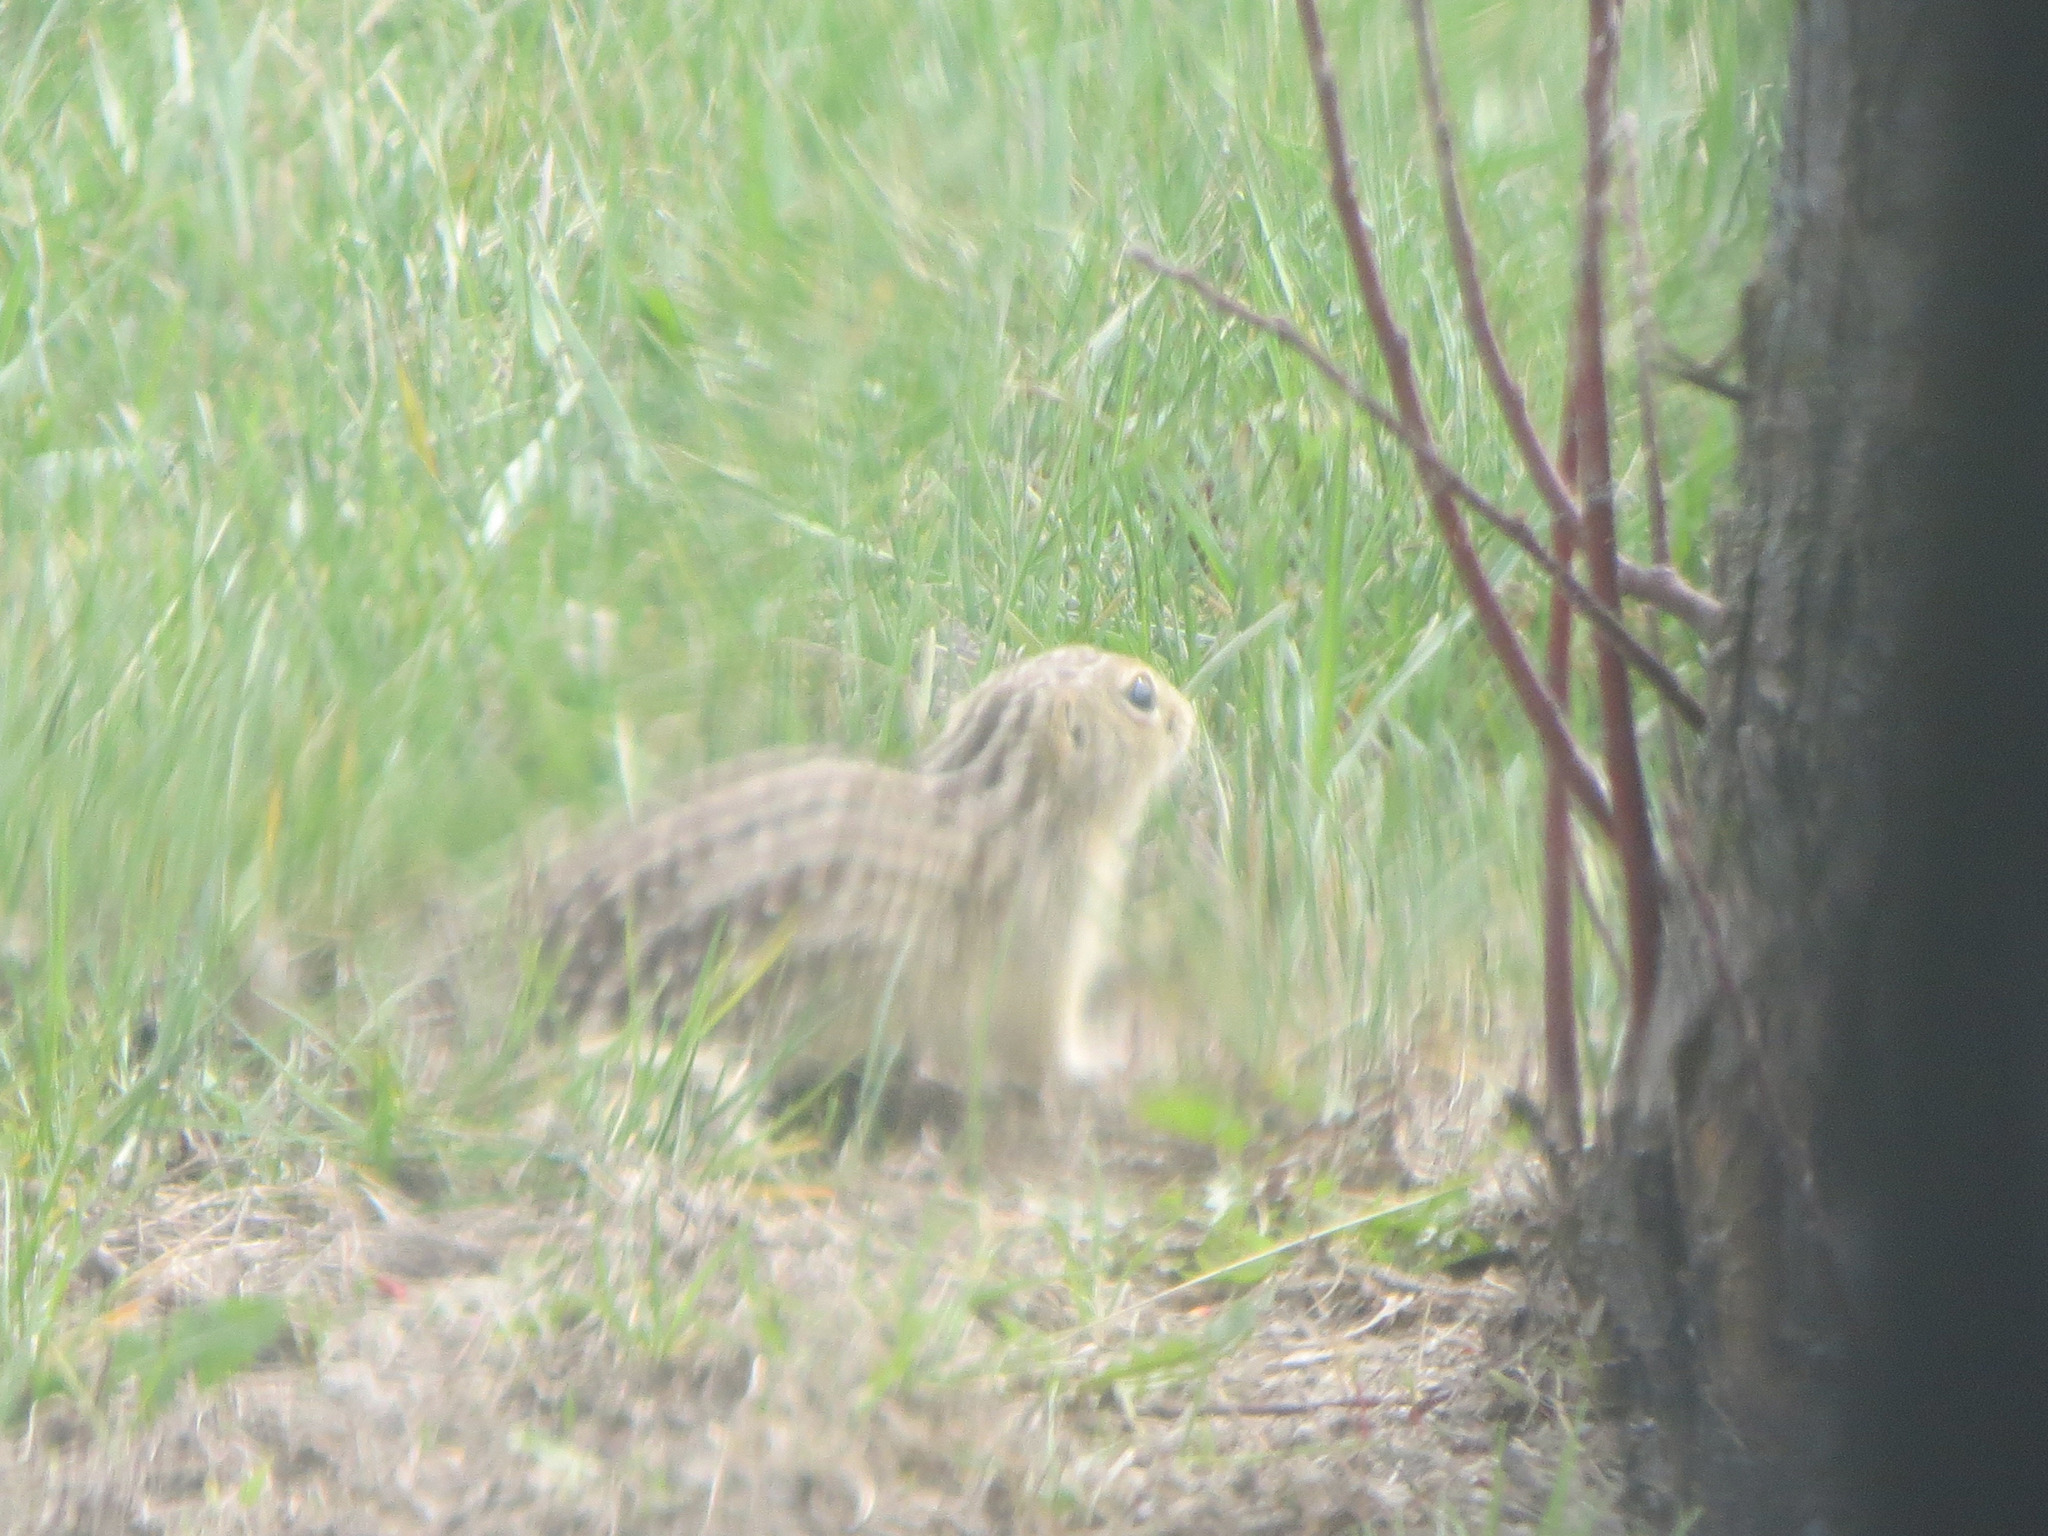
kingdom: Animalia
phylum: Chordata
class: Mammalia
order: Rodentia
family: Sciuridae
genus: Ictidomys
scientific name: Ictidomys tridecemlineatus
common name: Thirteen-lined ground squirrel
